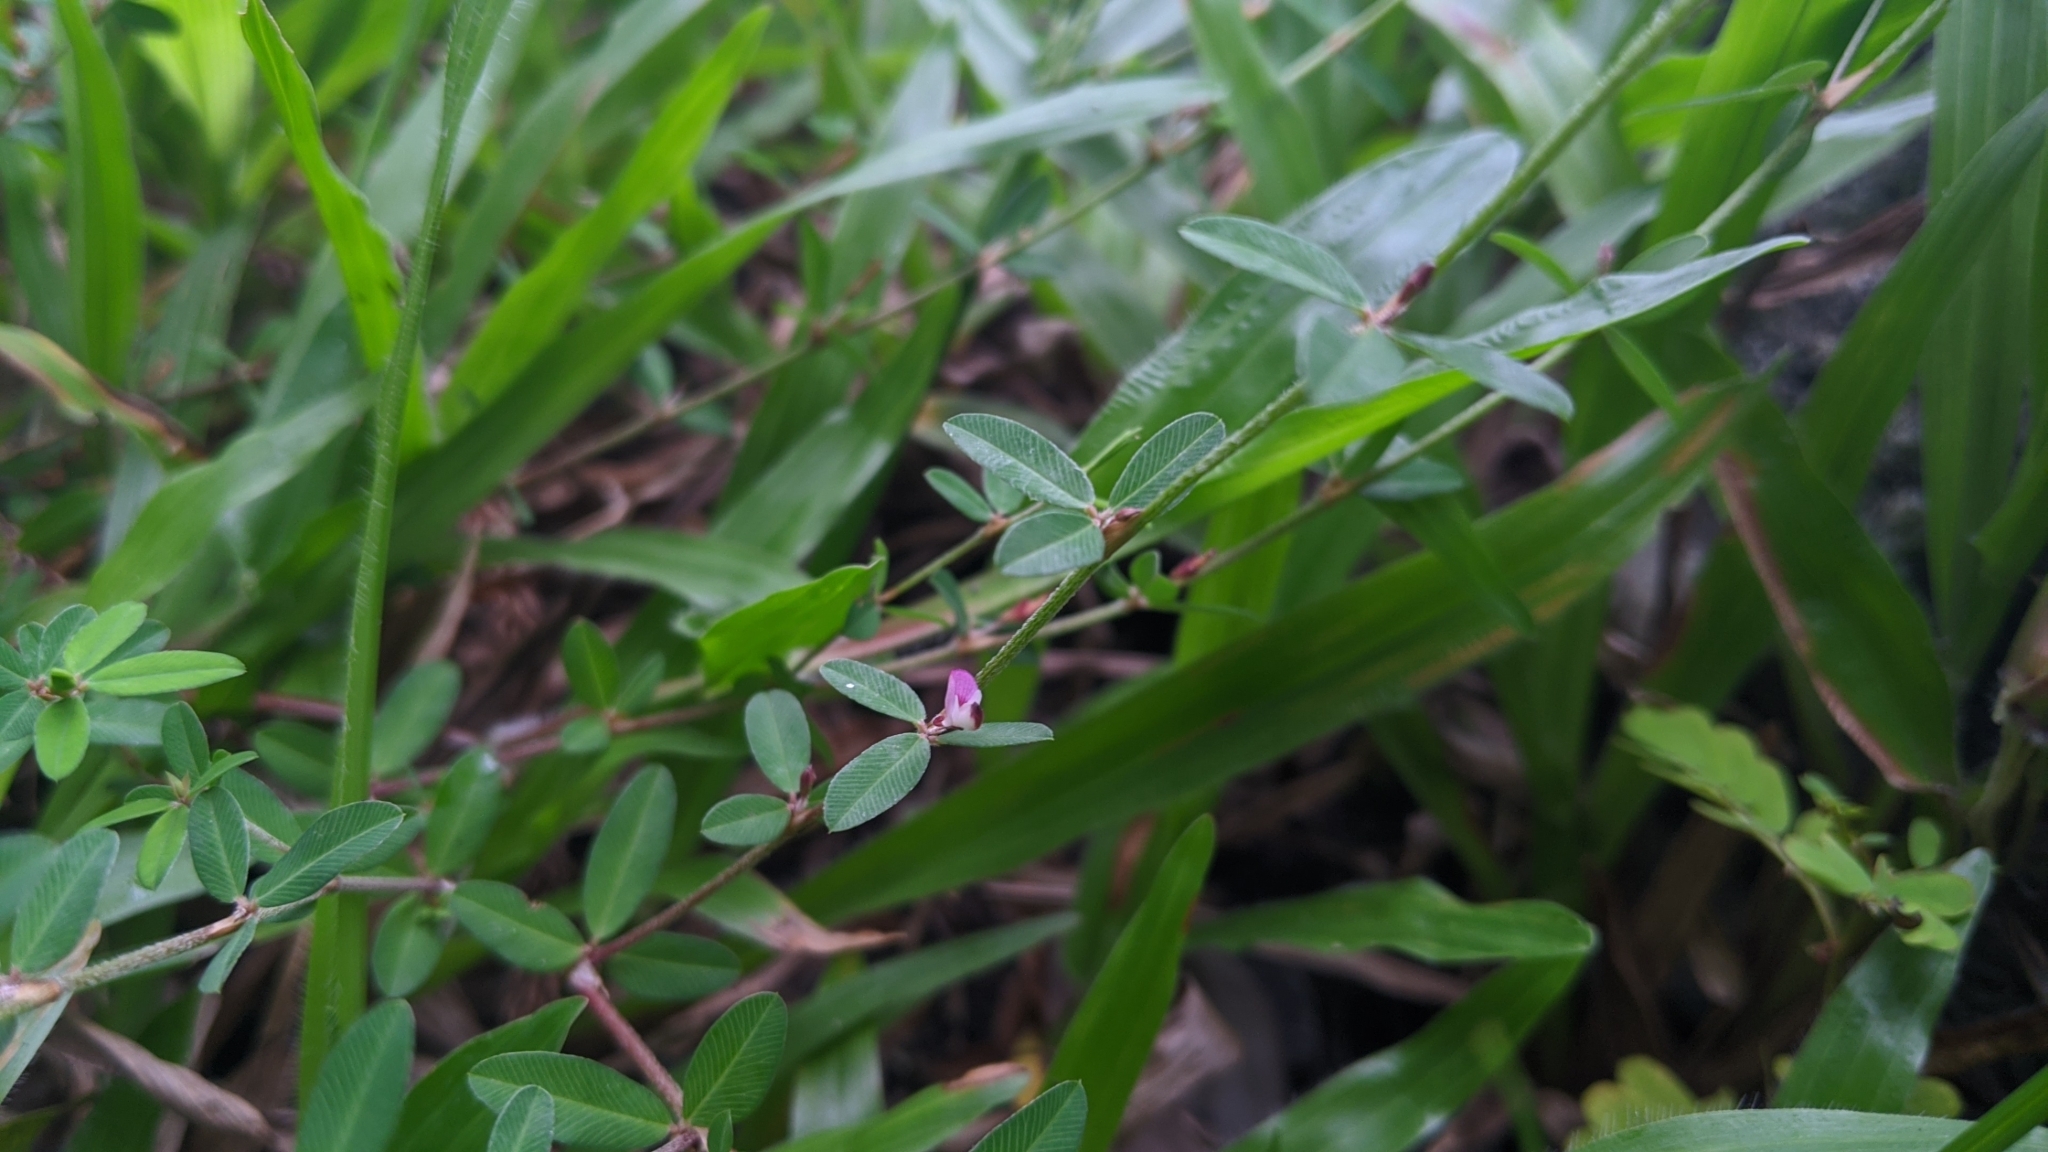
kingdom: Plantae
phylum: Tracheophyta
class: Magnoliopsida
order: Fabales
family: Fabaceae
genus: Kummerowia
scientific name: Kummerowia striata
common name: Japanese clover
